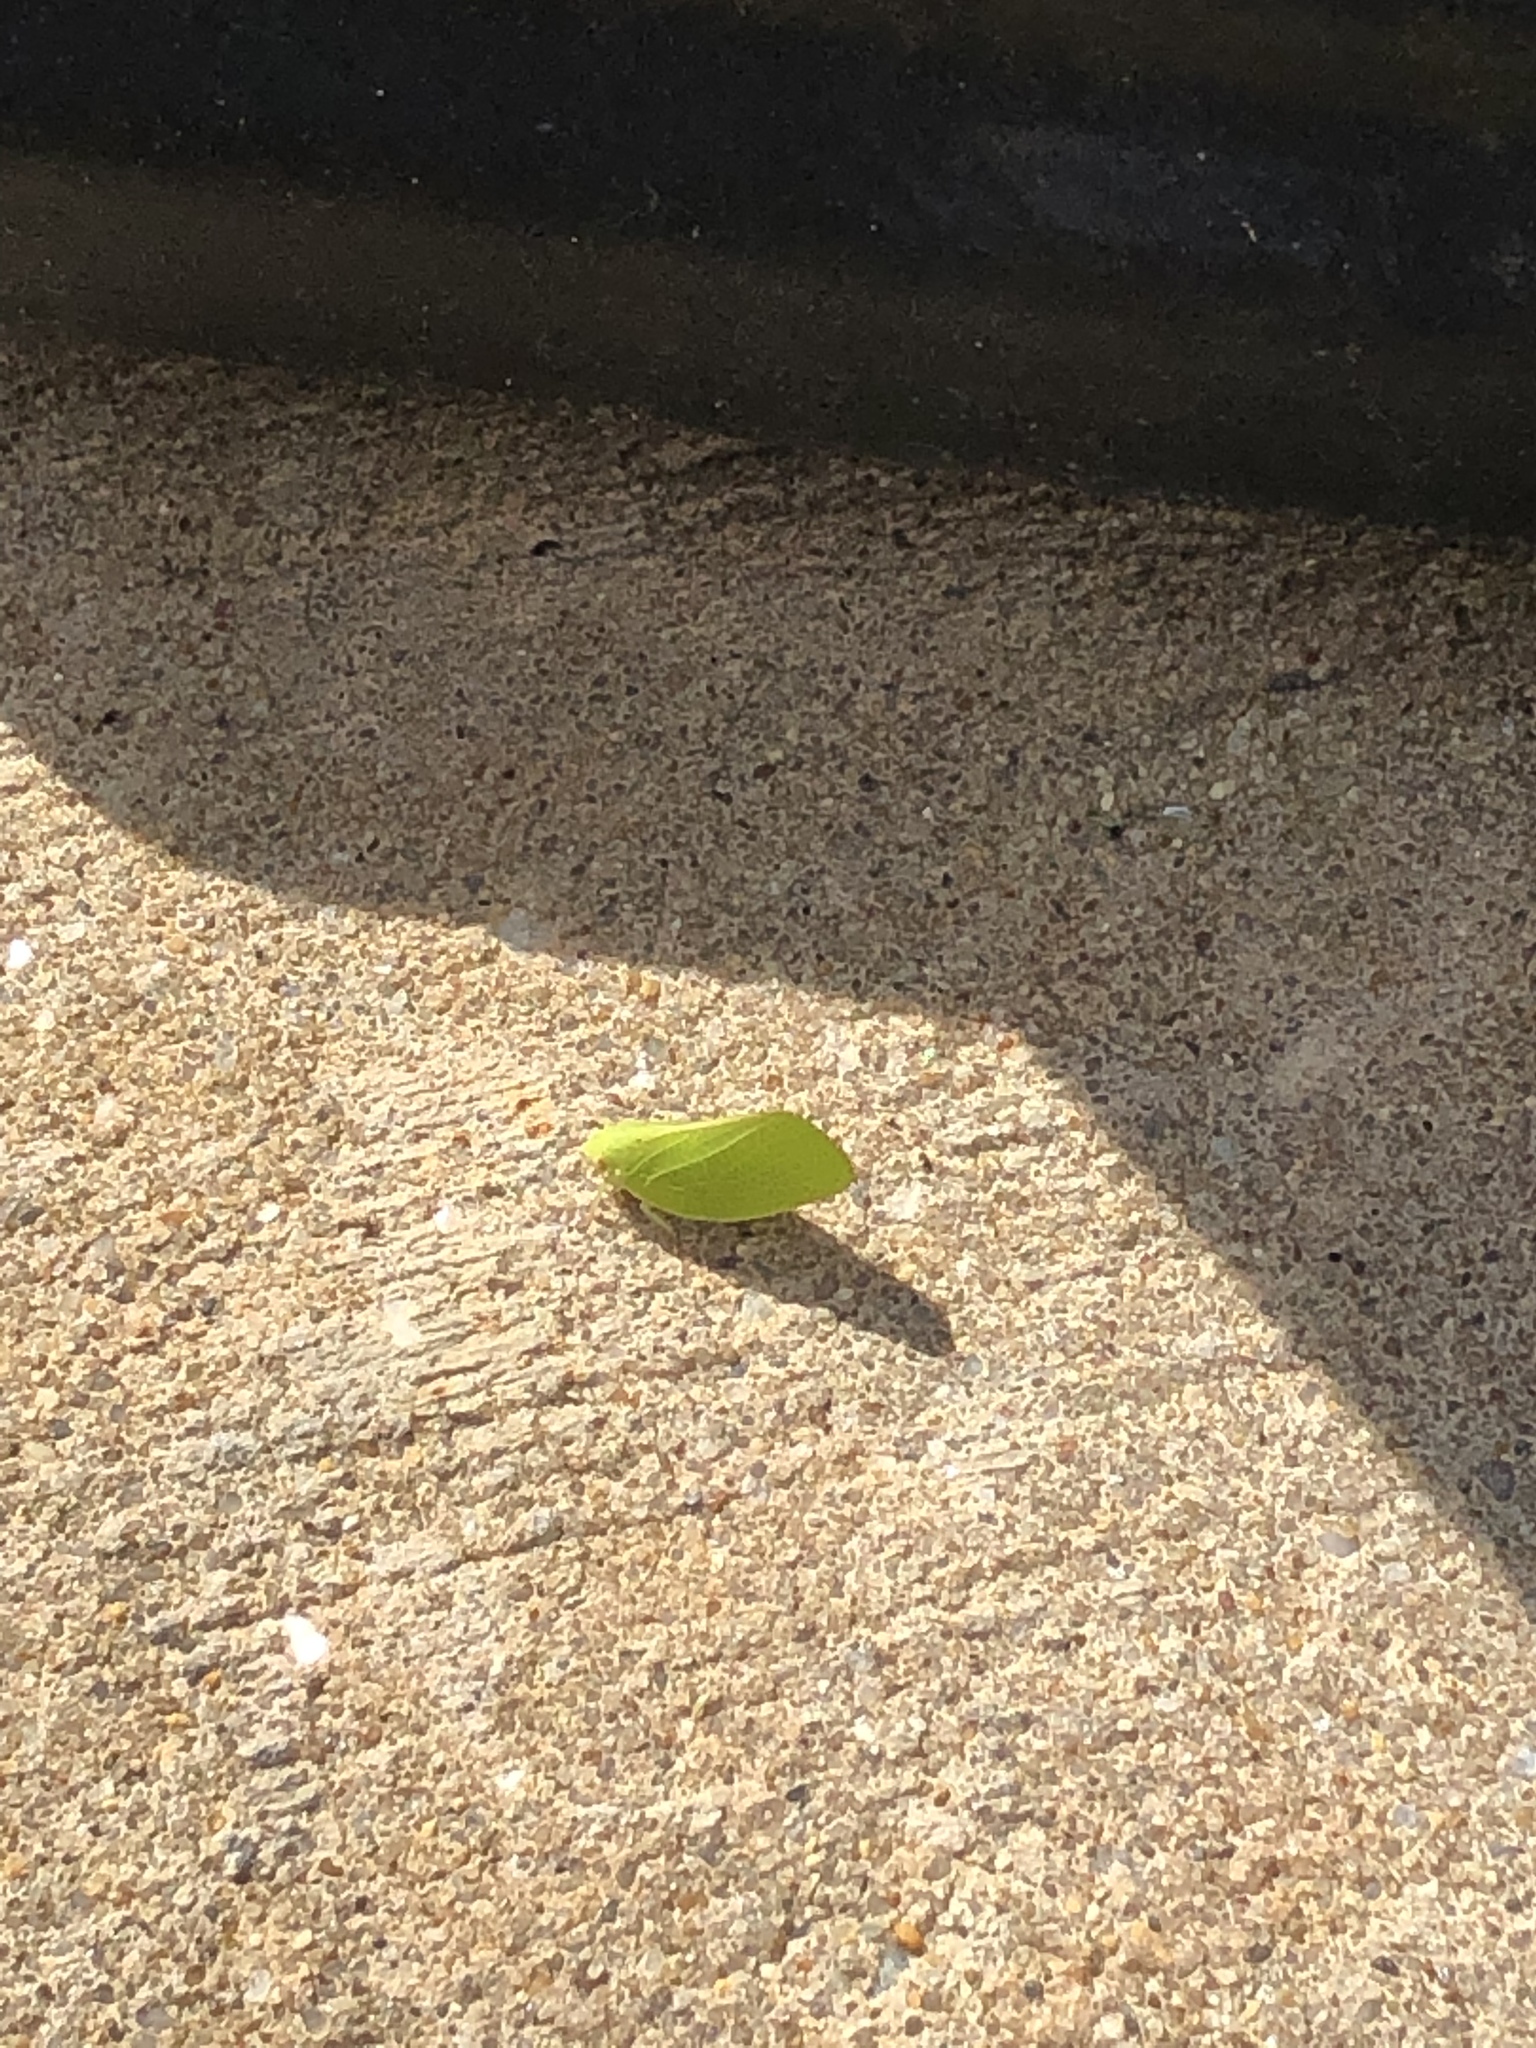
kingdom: Animalia
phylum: Arthropoda
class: Insecta
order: Hemiptera
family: Acanaloniidae
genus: Acanalonia
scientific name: Acanalonia conica
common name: Green cone-headed planthopper
